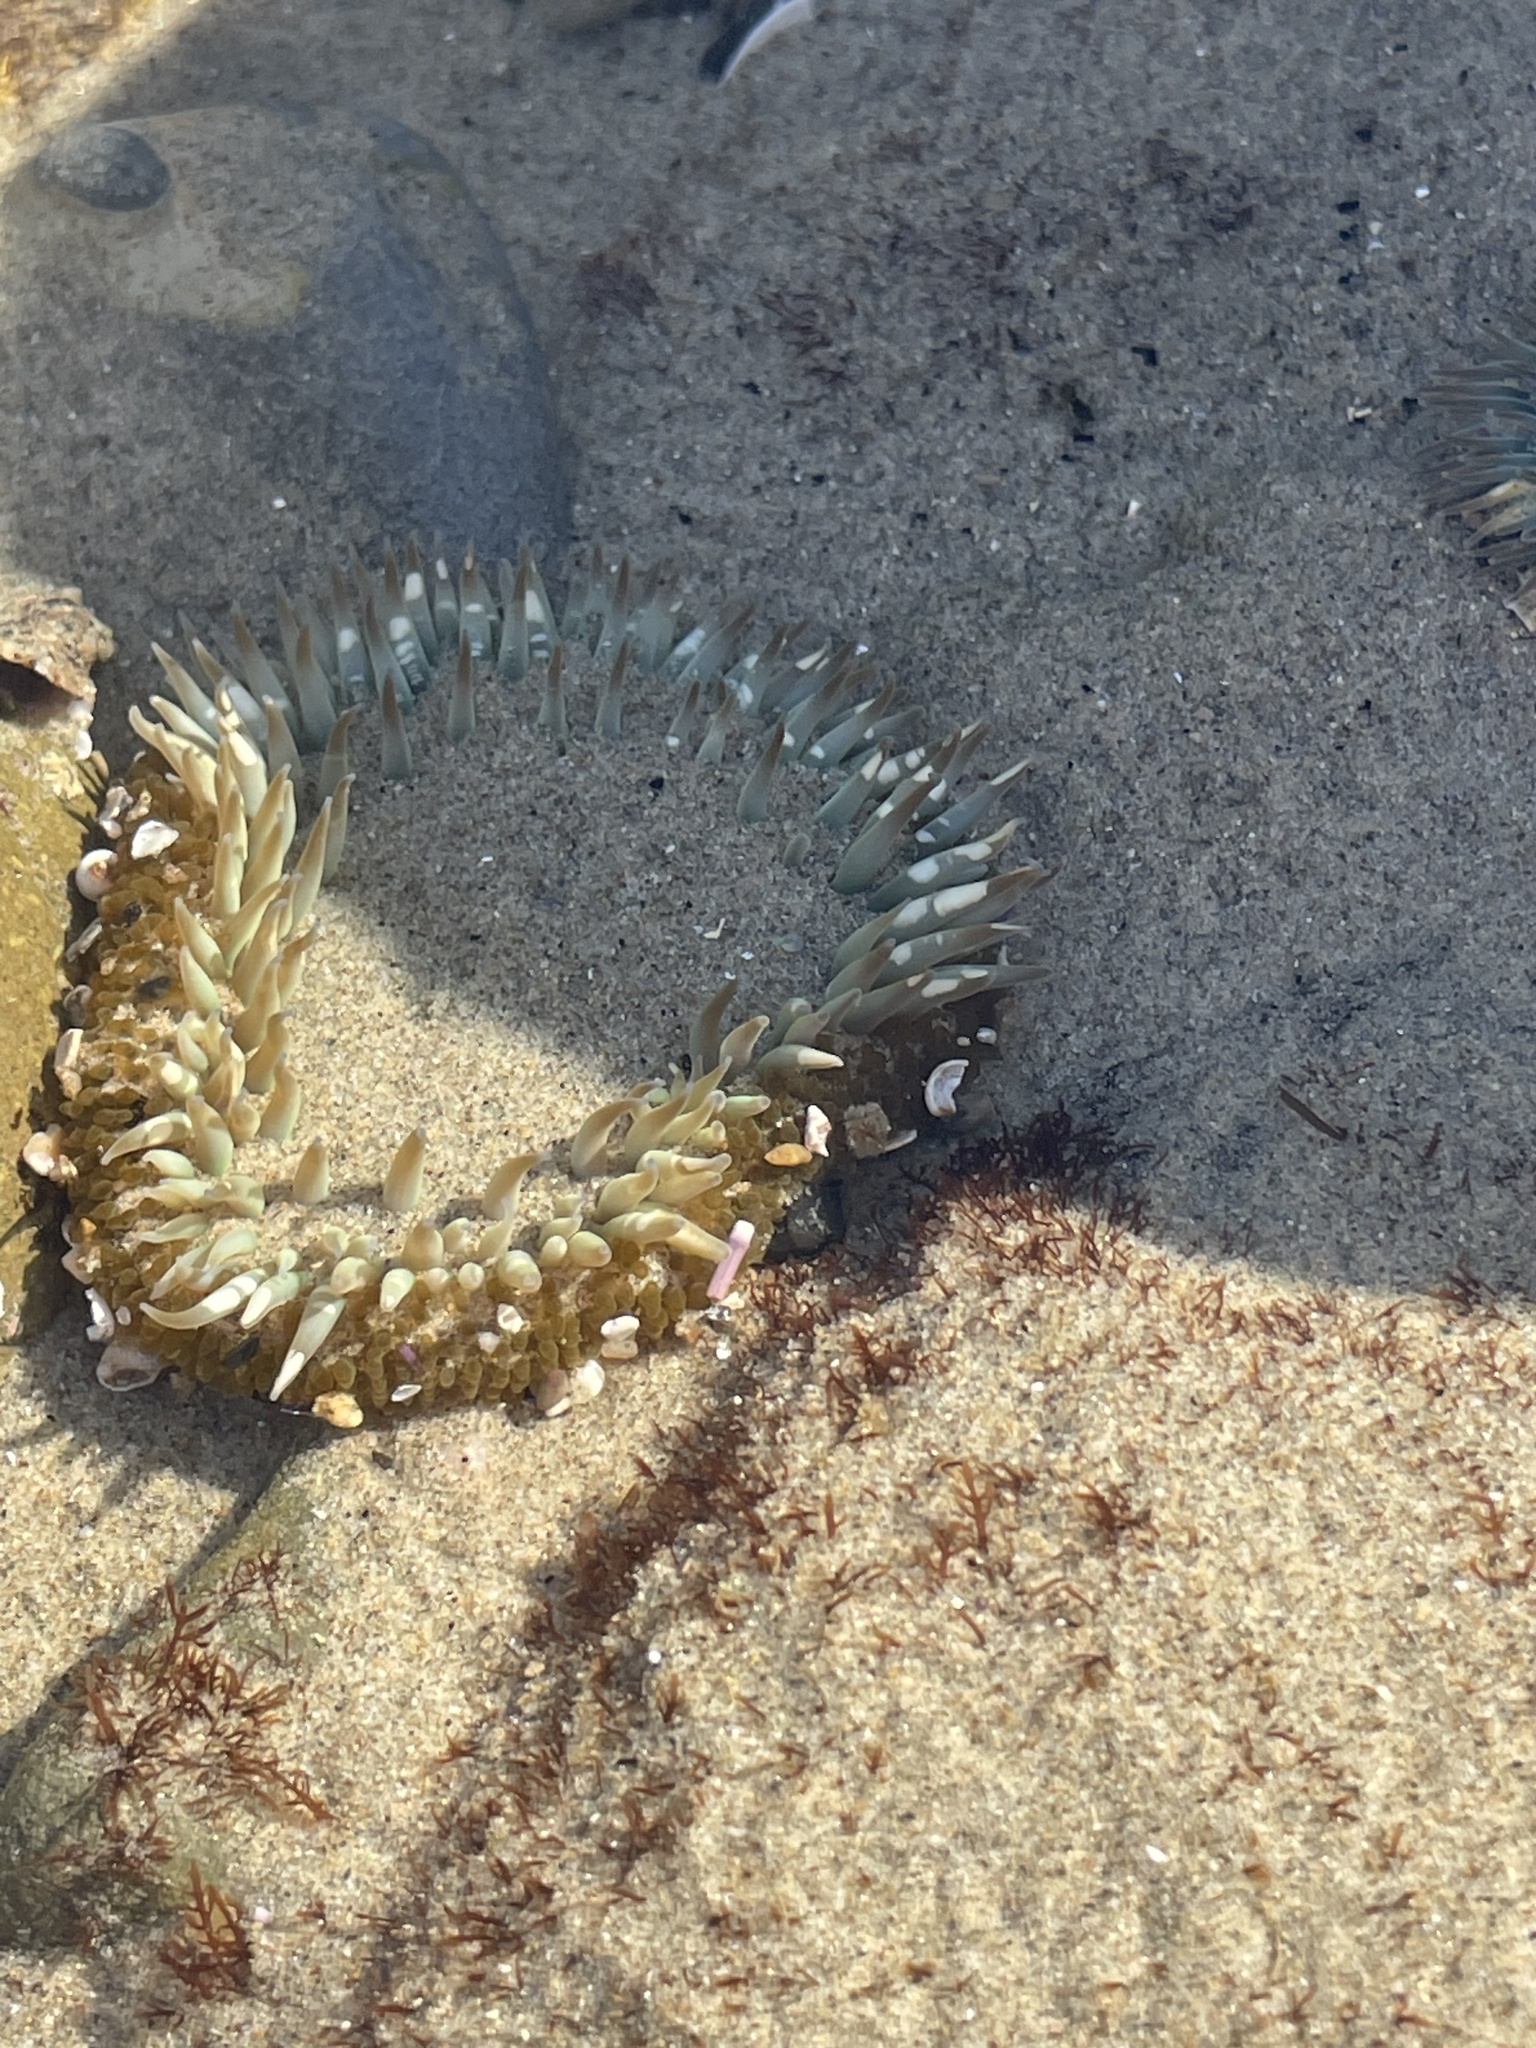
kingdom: Animalia
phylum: Cnidaria
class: Anthozoa
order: Actiniaria
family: Actiniidae
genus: Anthopleura
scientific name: Anthopleura sola
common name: Sun anemone
